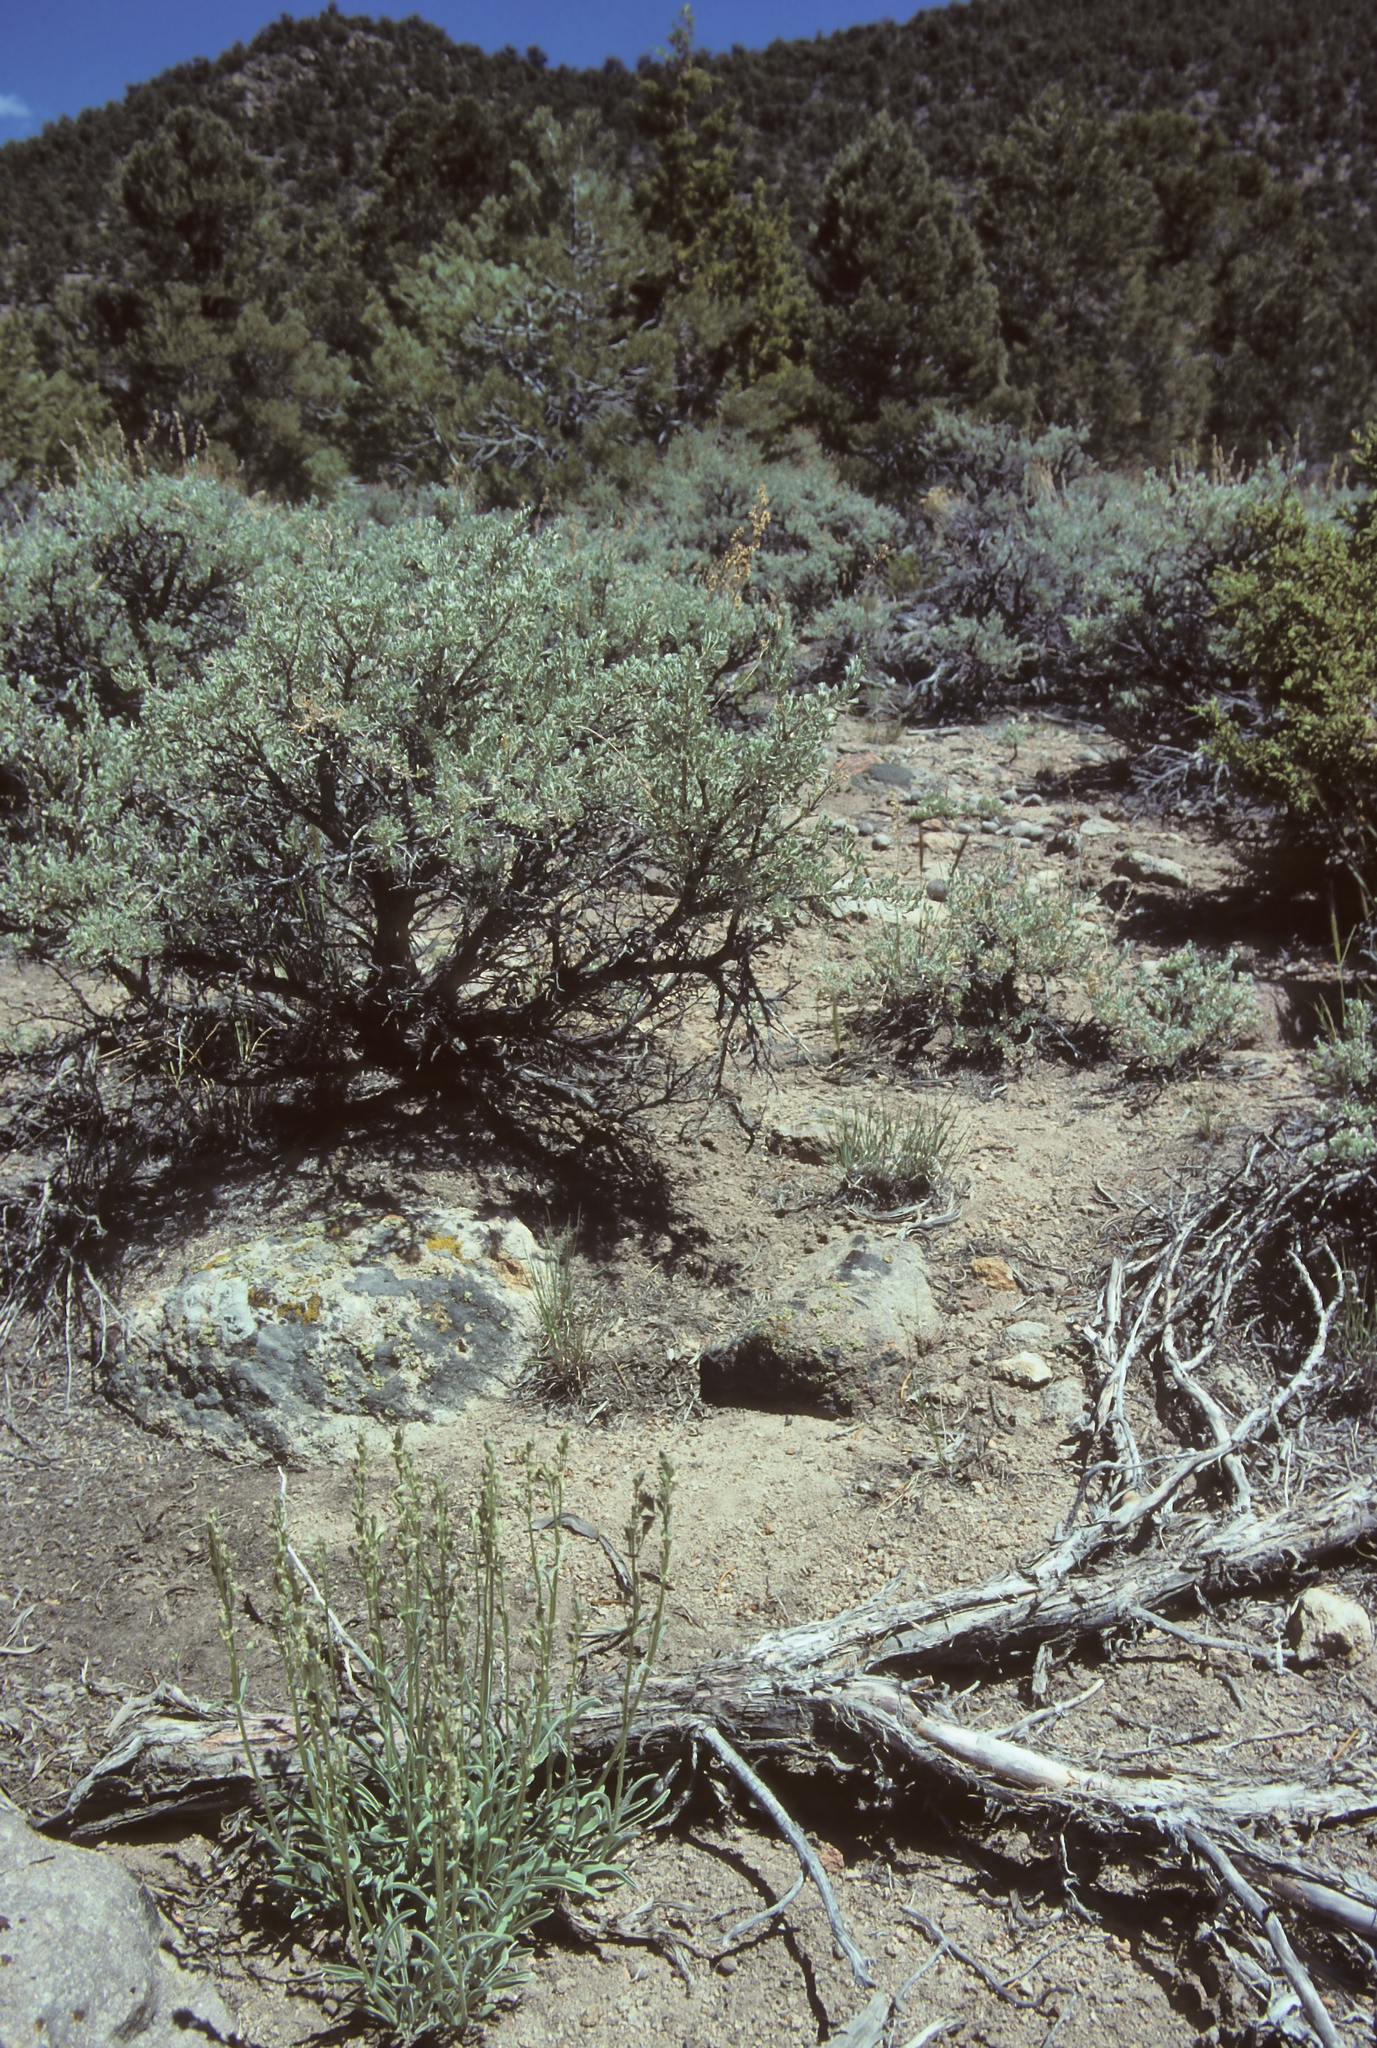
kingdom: Plantae
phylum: Tracheophyta
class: Magnoliopsida
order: Gentianales
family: Gentianaceae
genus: Frasera
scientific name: Frasera albicaulis
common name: Cusick's frasera
